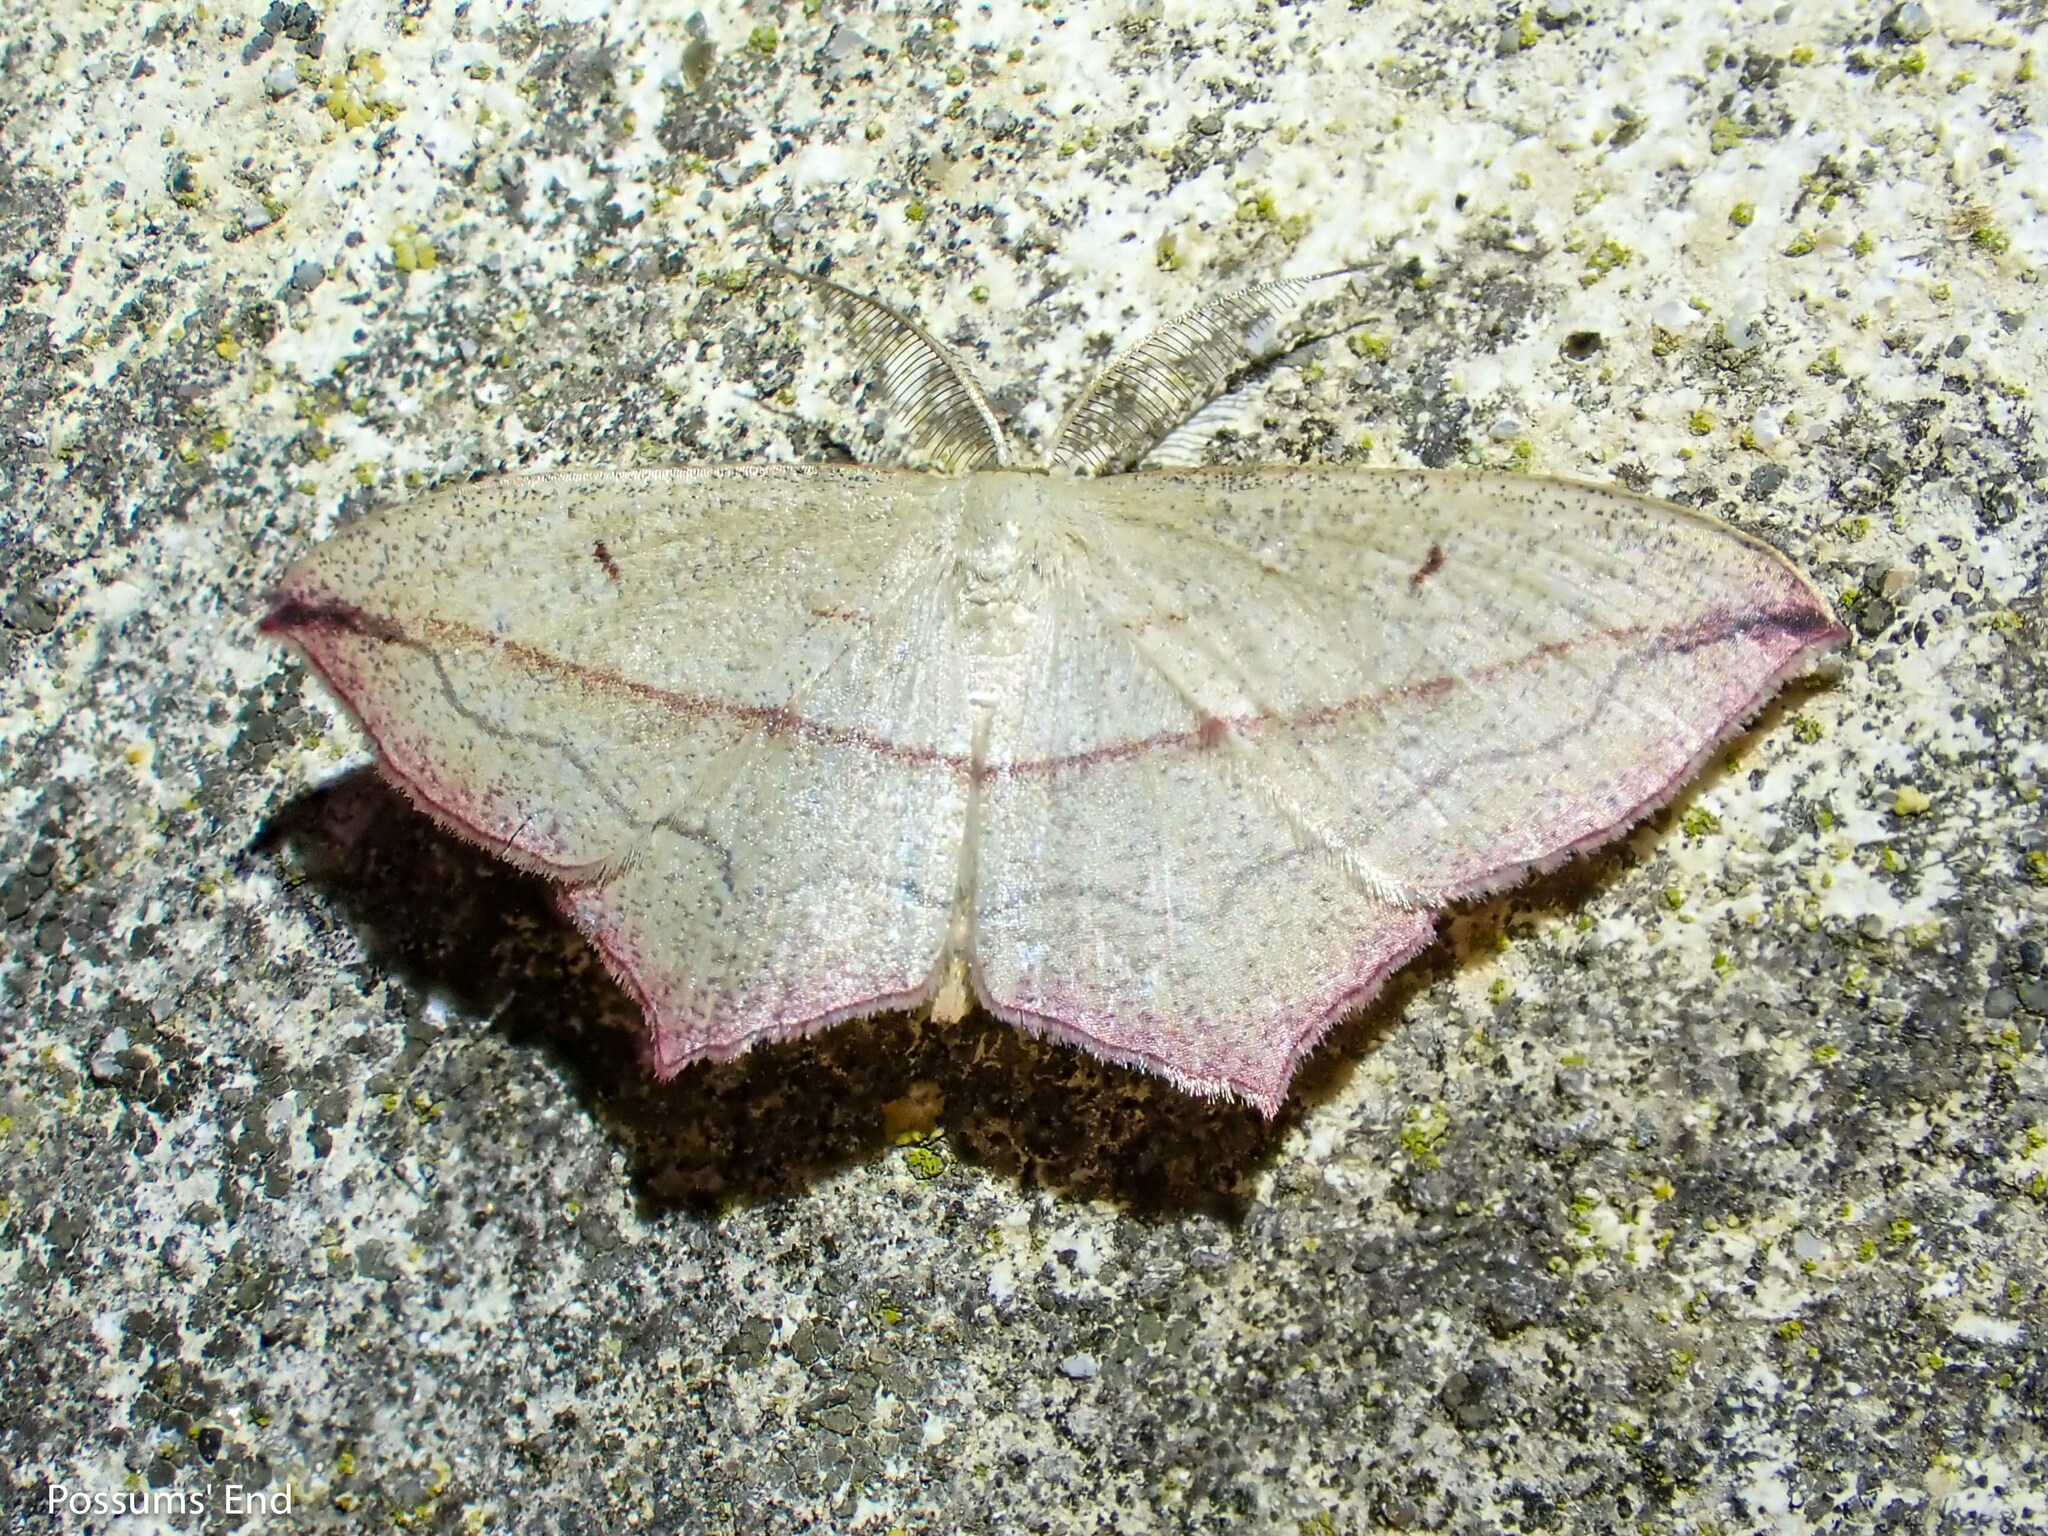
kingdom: Animalia
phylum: Arthropoda
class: Insecta
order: Lepidoptera
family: Geometridae
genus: Timandra
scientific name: Timandra comae
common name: Blood-vein
